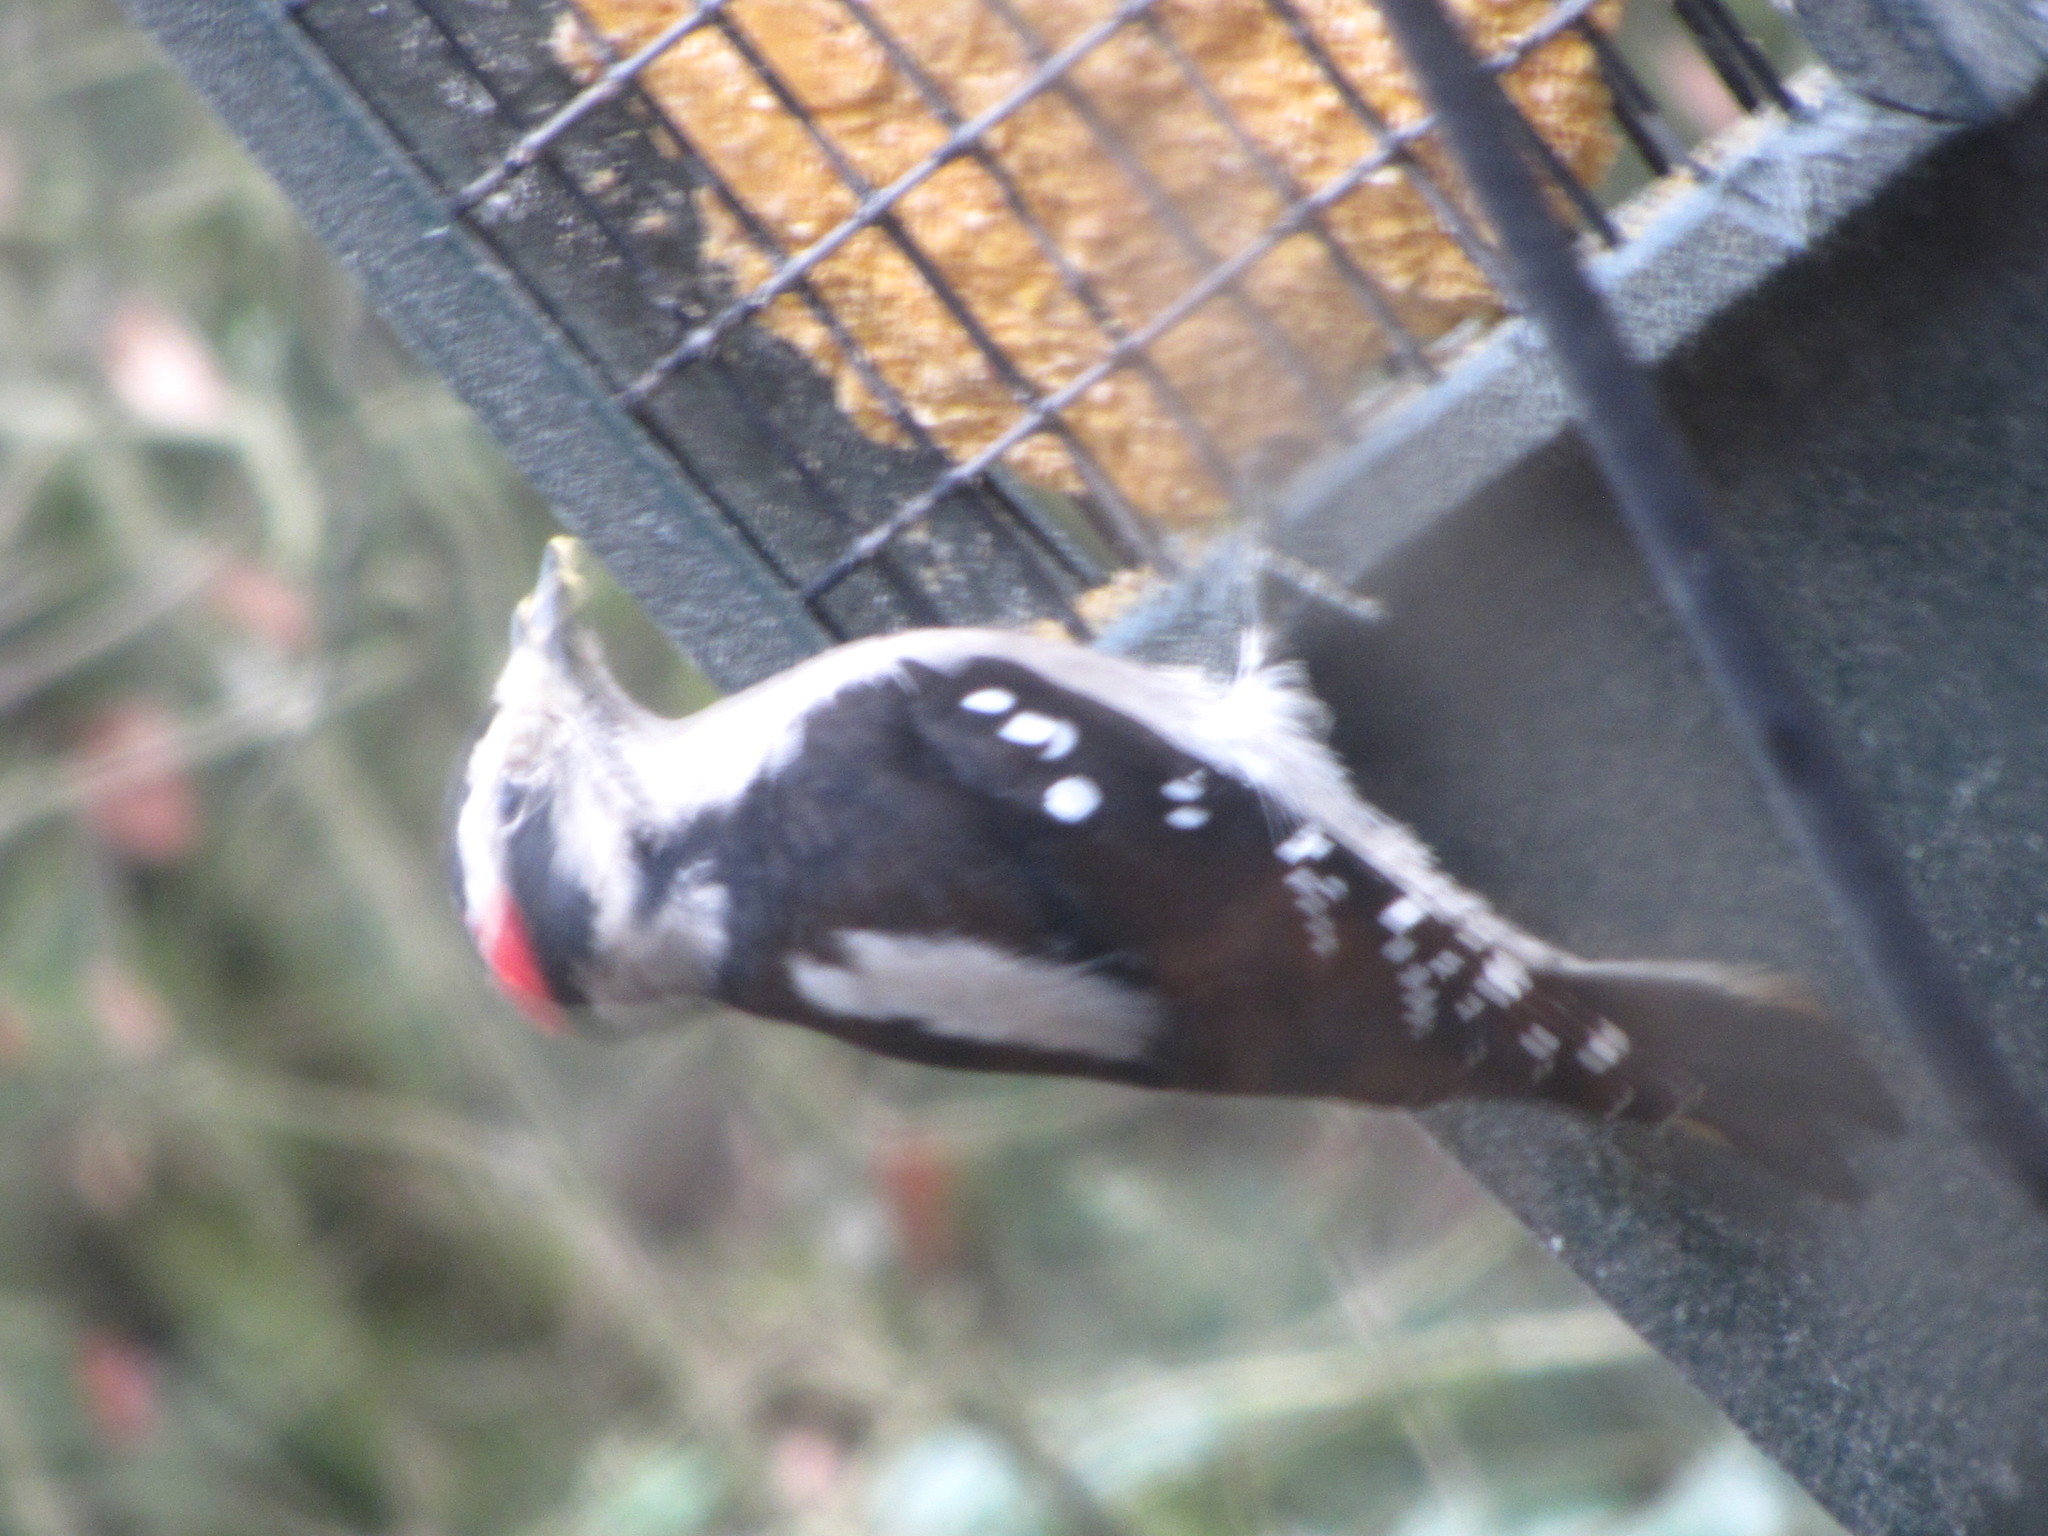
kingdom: Animalia
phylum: Chordata
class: Aves
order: Piciformes
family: Picidae
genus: Dryobates
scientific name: Dryobates pubescens
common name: Downy woodpecker
